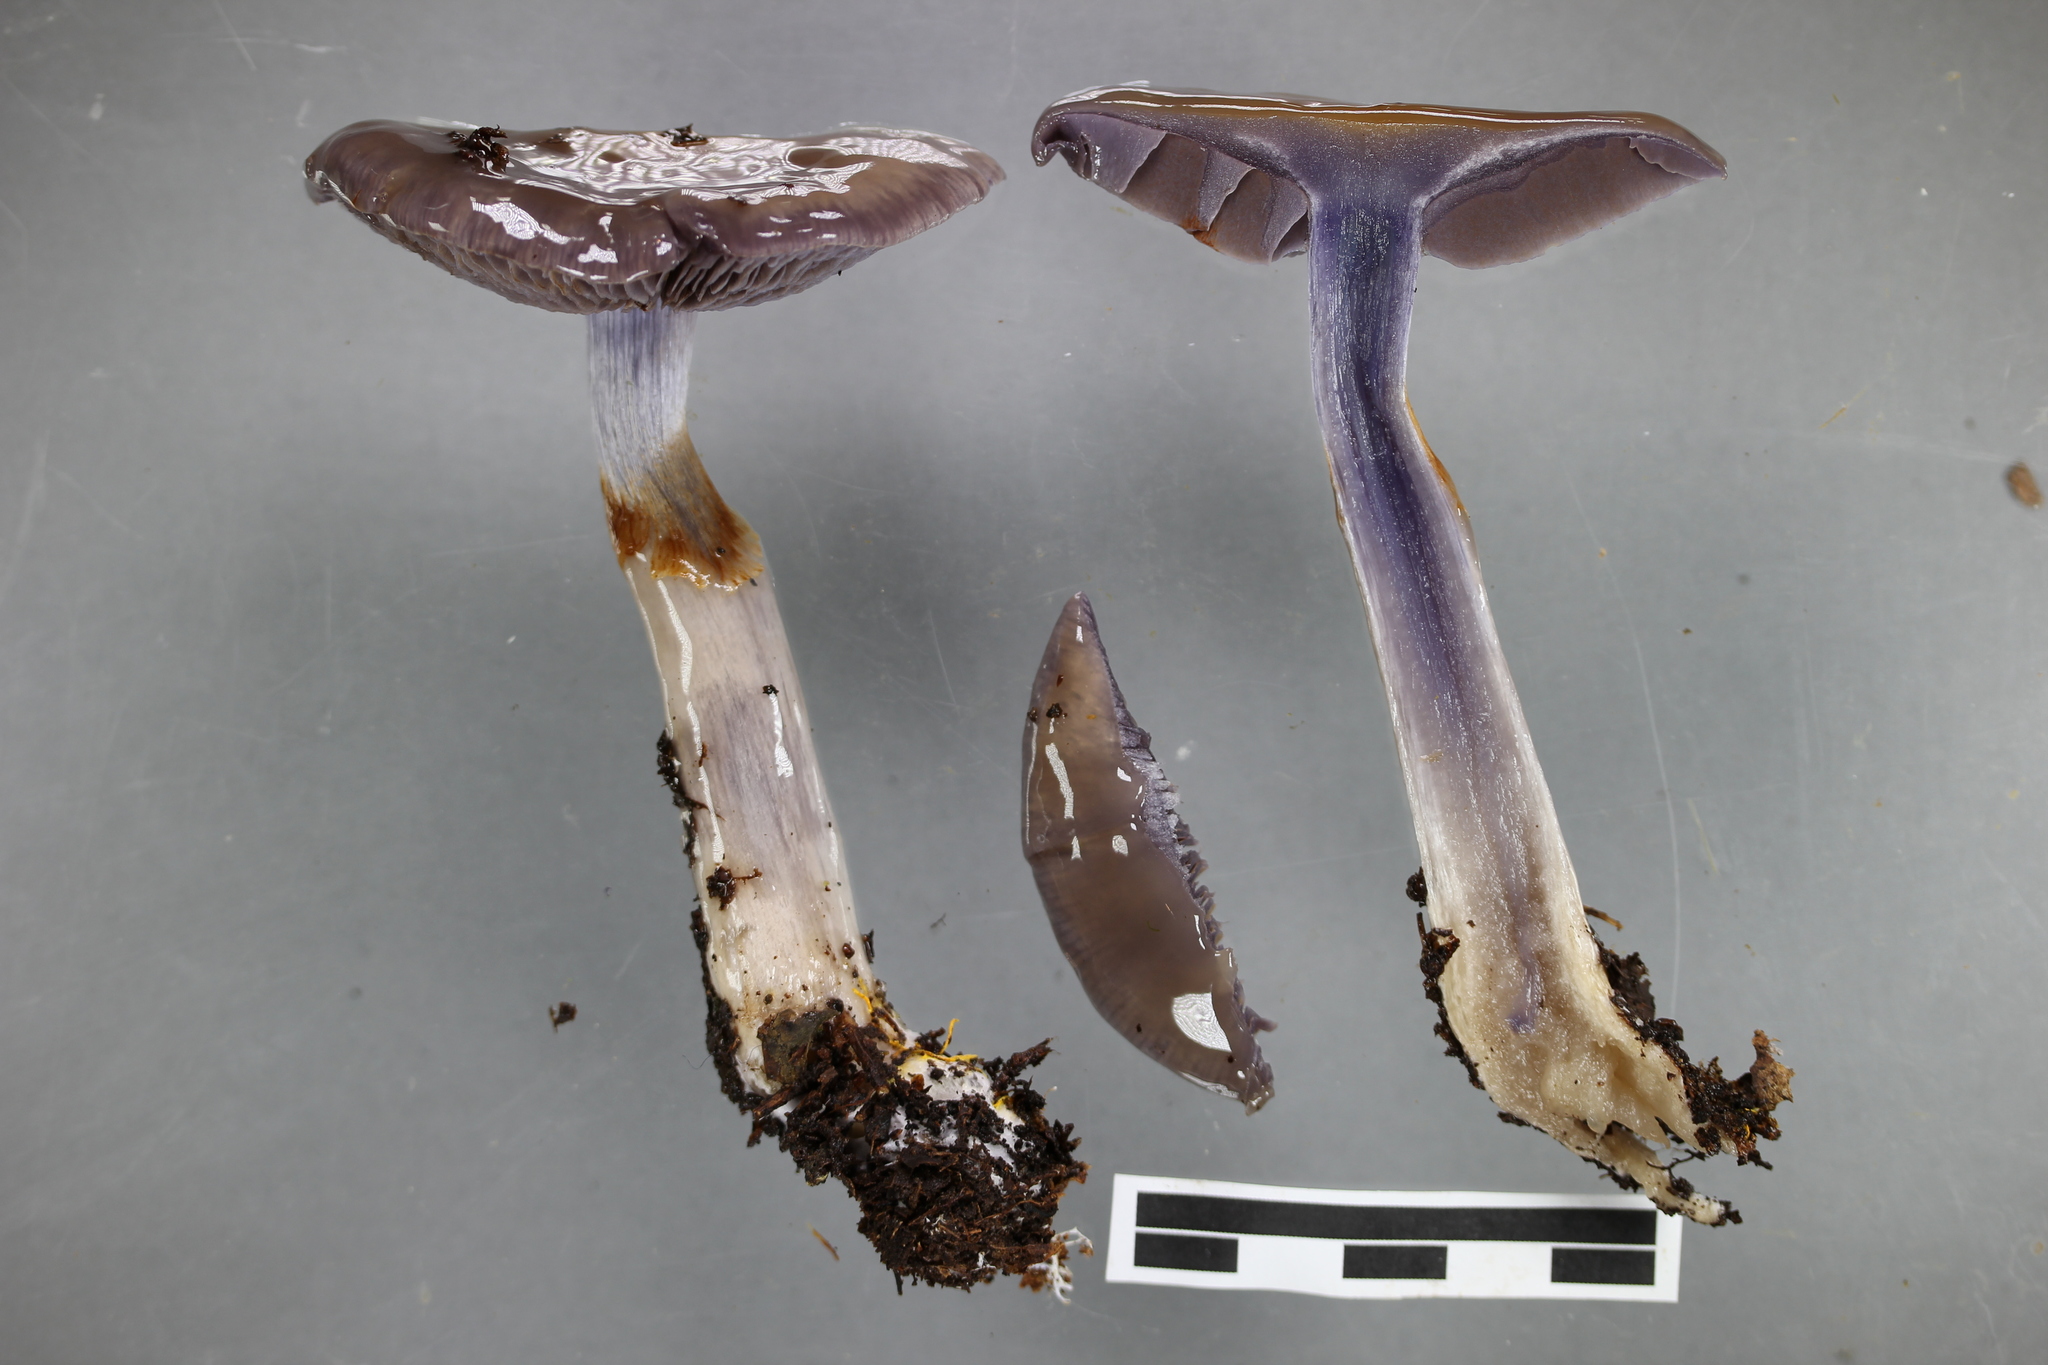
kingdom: Fungi
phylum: Basidiomycota
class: Agaricomycetes
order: Agaricales
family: Cortinariaceae
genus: Cortinarius
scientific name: Cortinarius taylorianus
